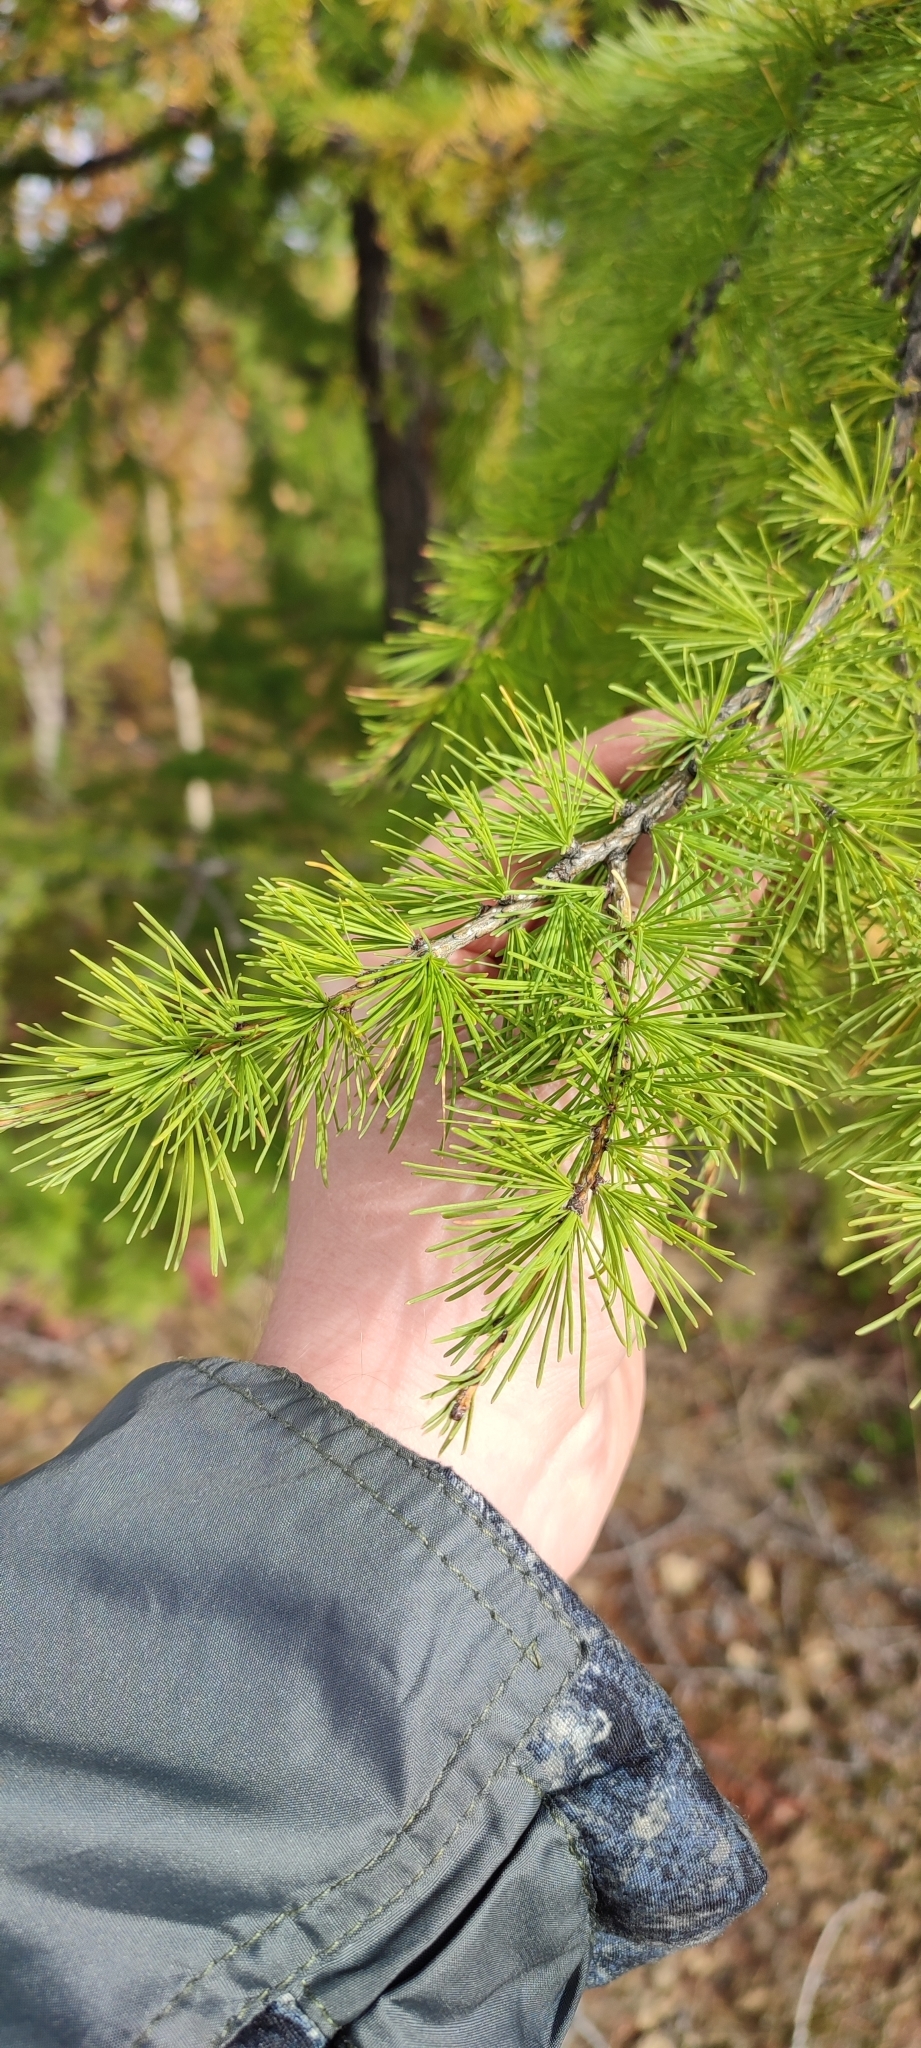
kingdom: Plantae
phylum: Tracheophyta
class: Pinopsida
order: Pinales
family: Pinaceae
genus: Larix
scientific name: Larix sibirica
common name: Siberian larch
